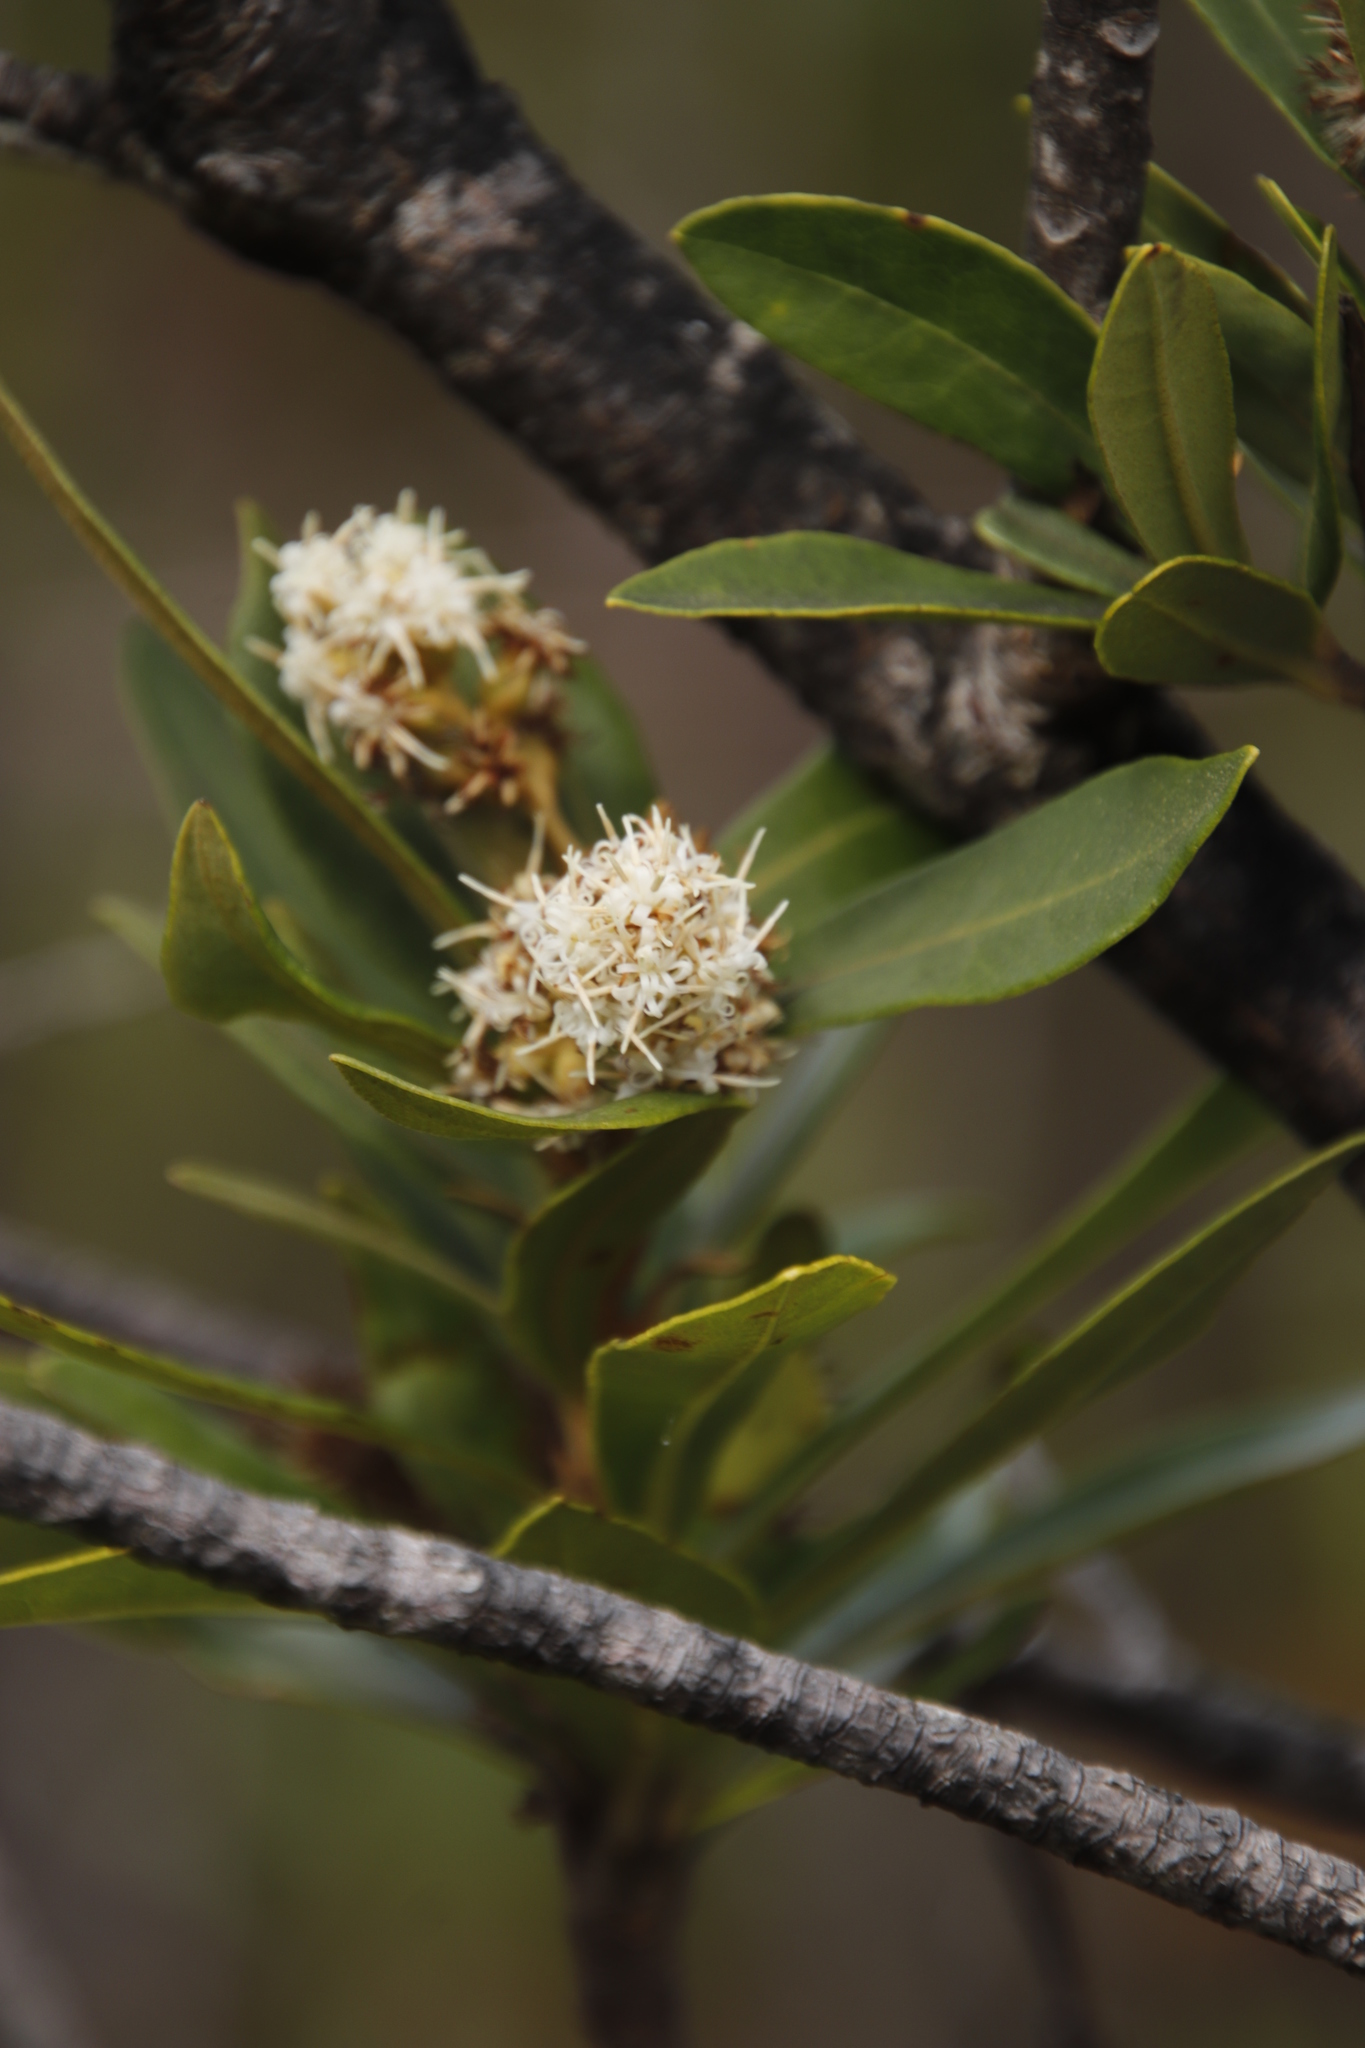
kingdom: Plantae
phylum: Tracheophyta
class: Magnoliopsida
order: Asterales
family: Asteraceae
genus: Brachylaena
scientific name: Brachylaena neriifolia
